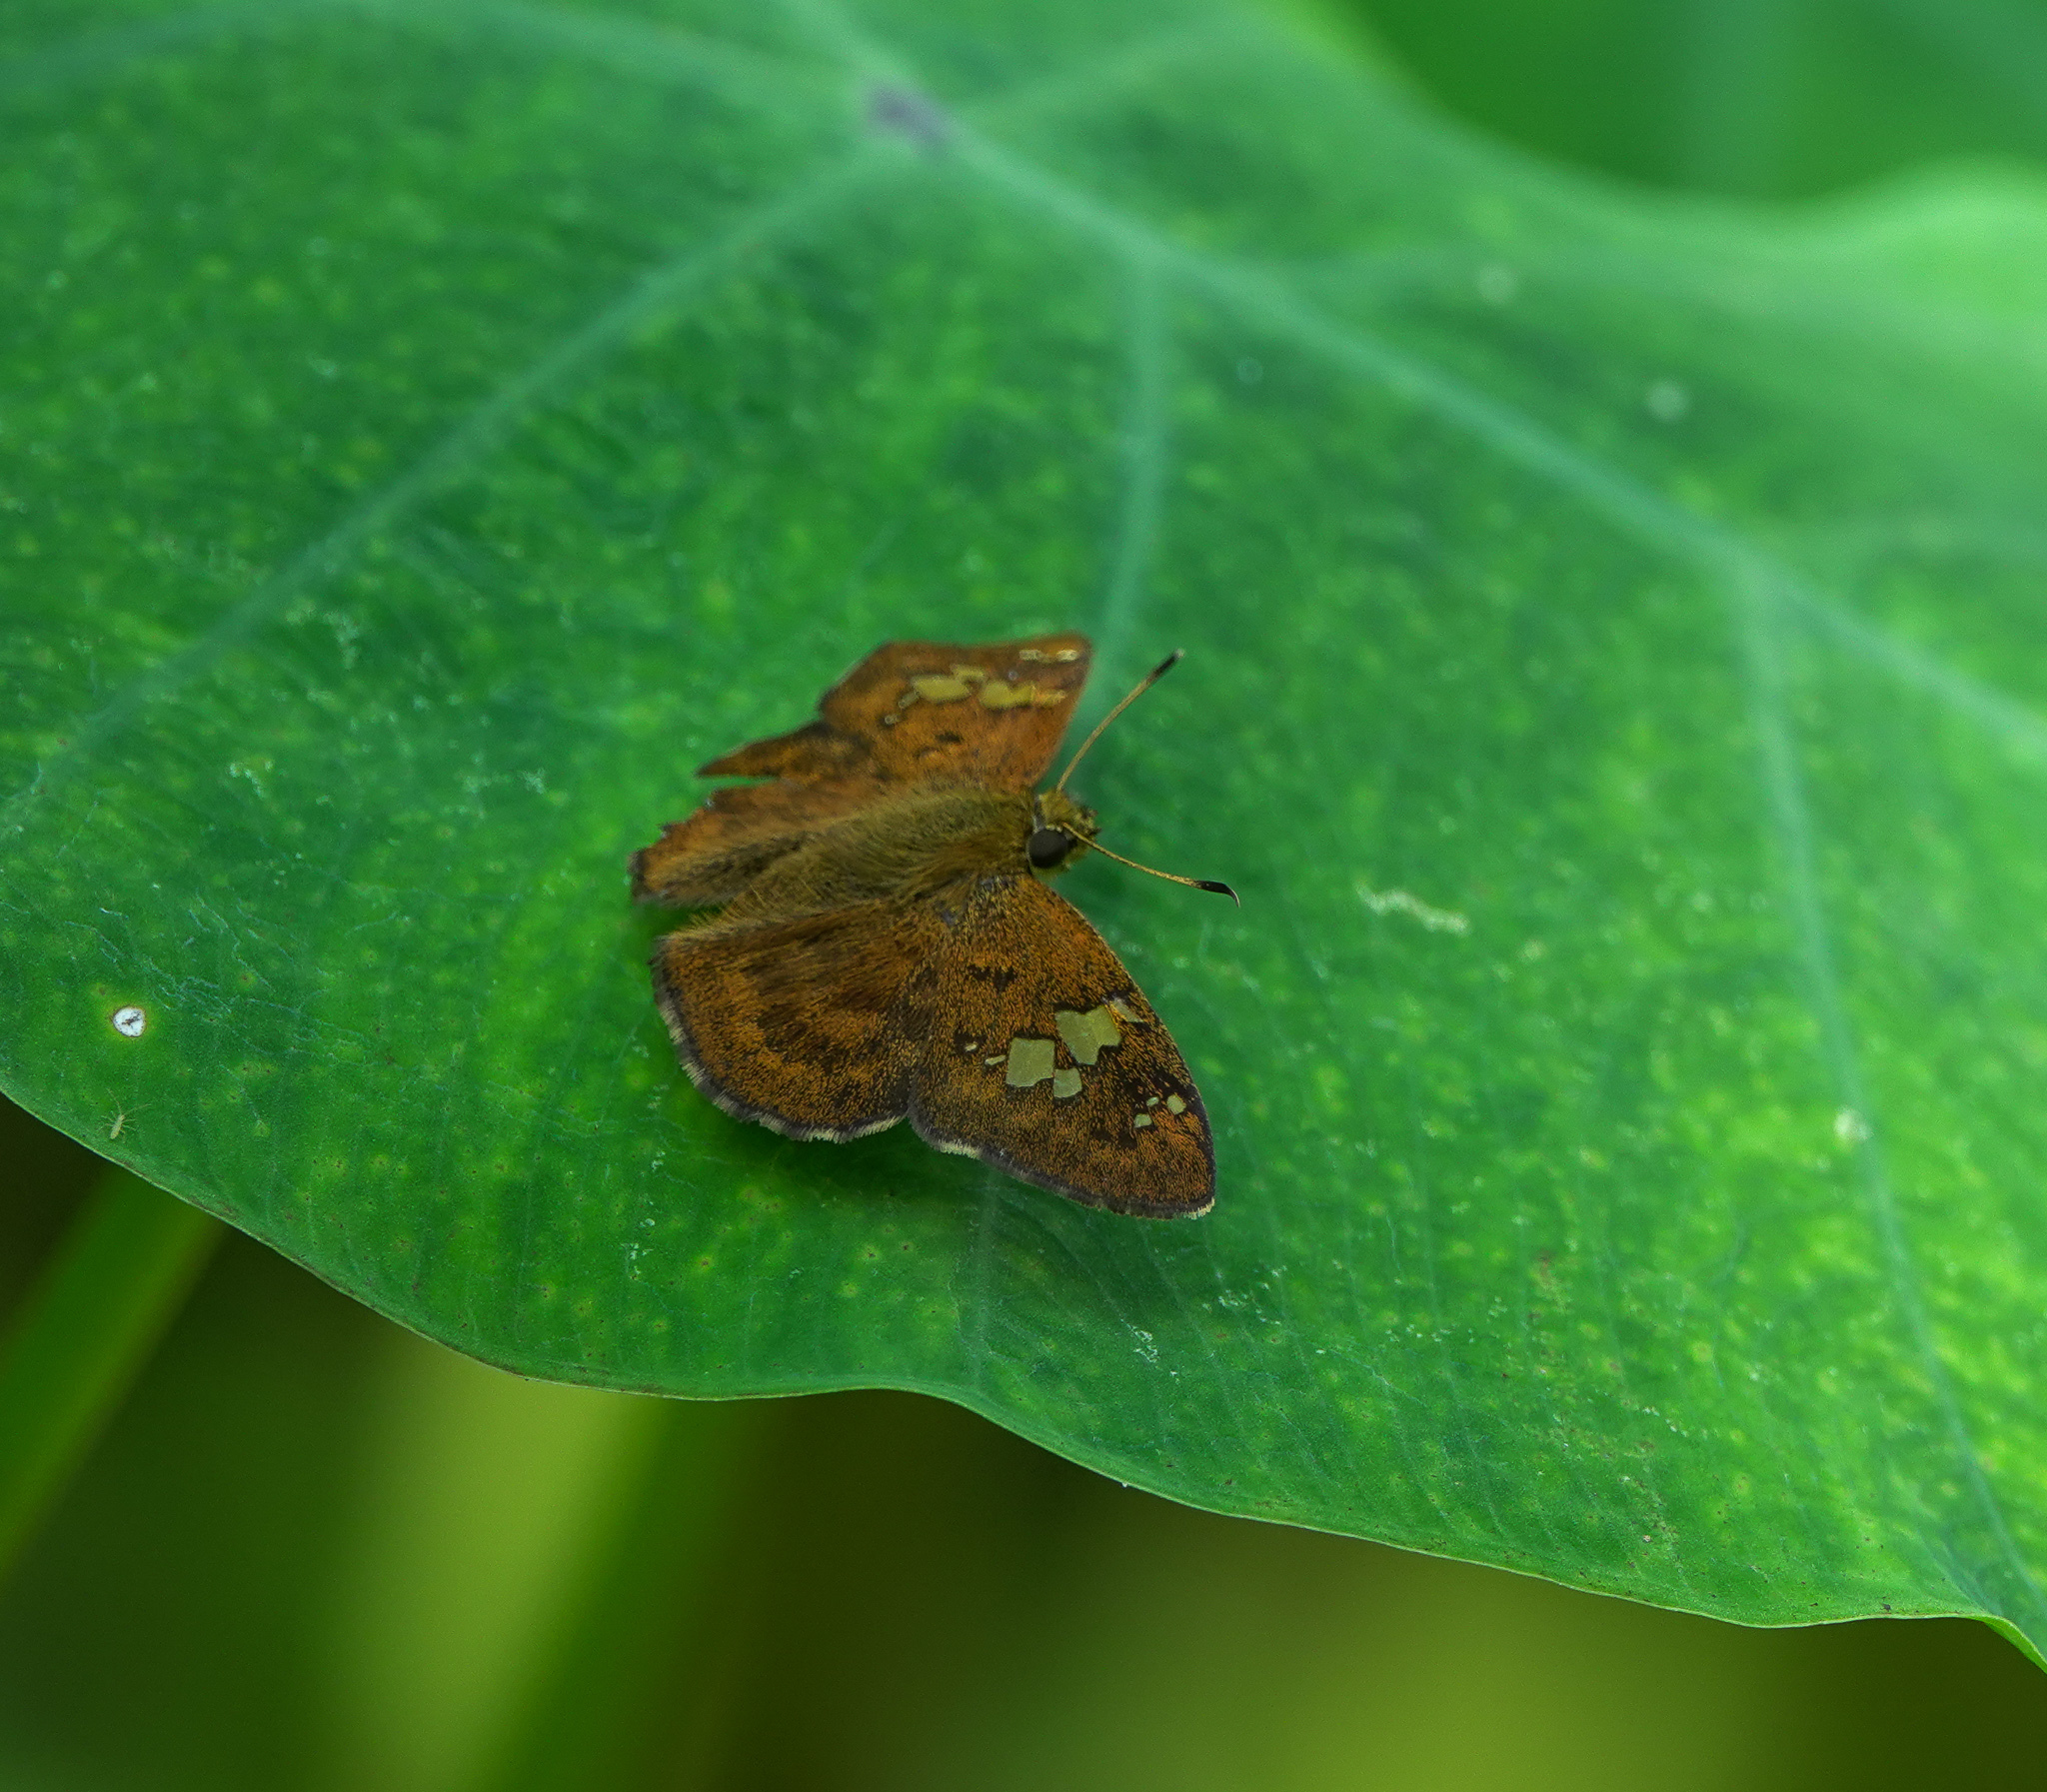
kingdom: Animalia
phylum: Arthropoda
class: Insecta
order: Lepidoptera
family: Hesperiidae
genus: Pseudocoladenia
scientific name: Pseudocoladenia dan
